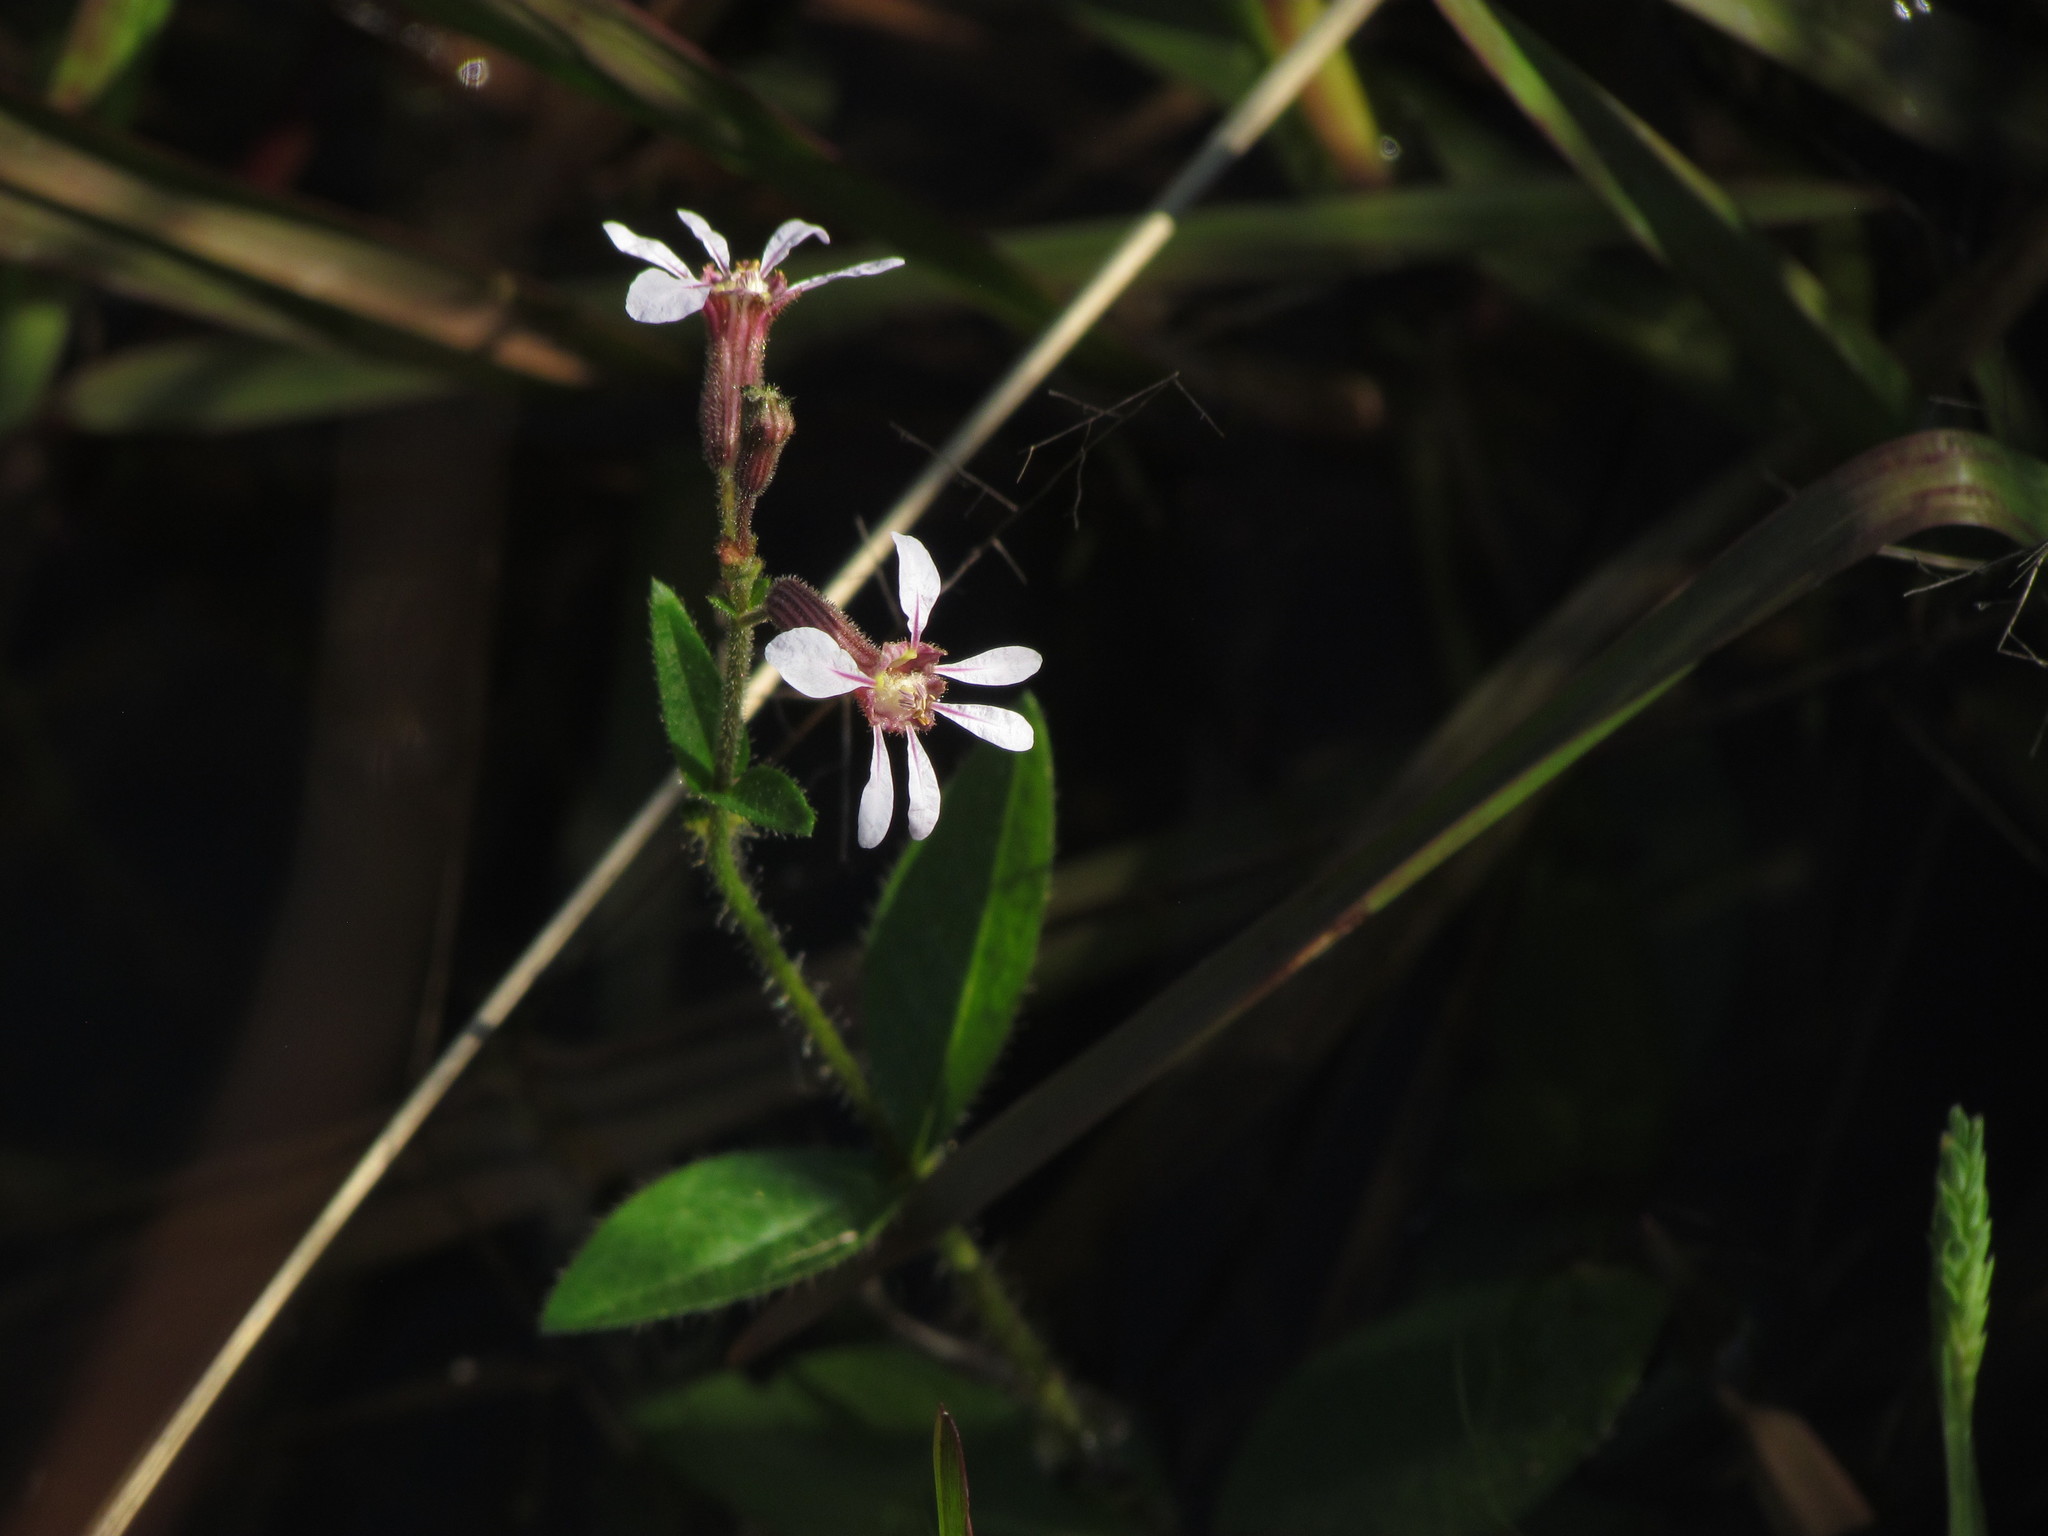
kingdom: Plantae
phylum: Tracheophyta
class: Magnoliopsida
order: Myrtales
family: Lythraceae
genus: Cuphea
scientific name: Cuphea glutinosa
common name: Sticky waxweed
